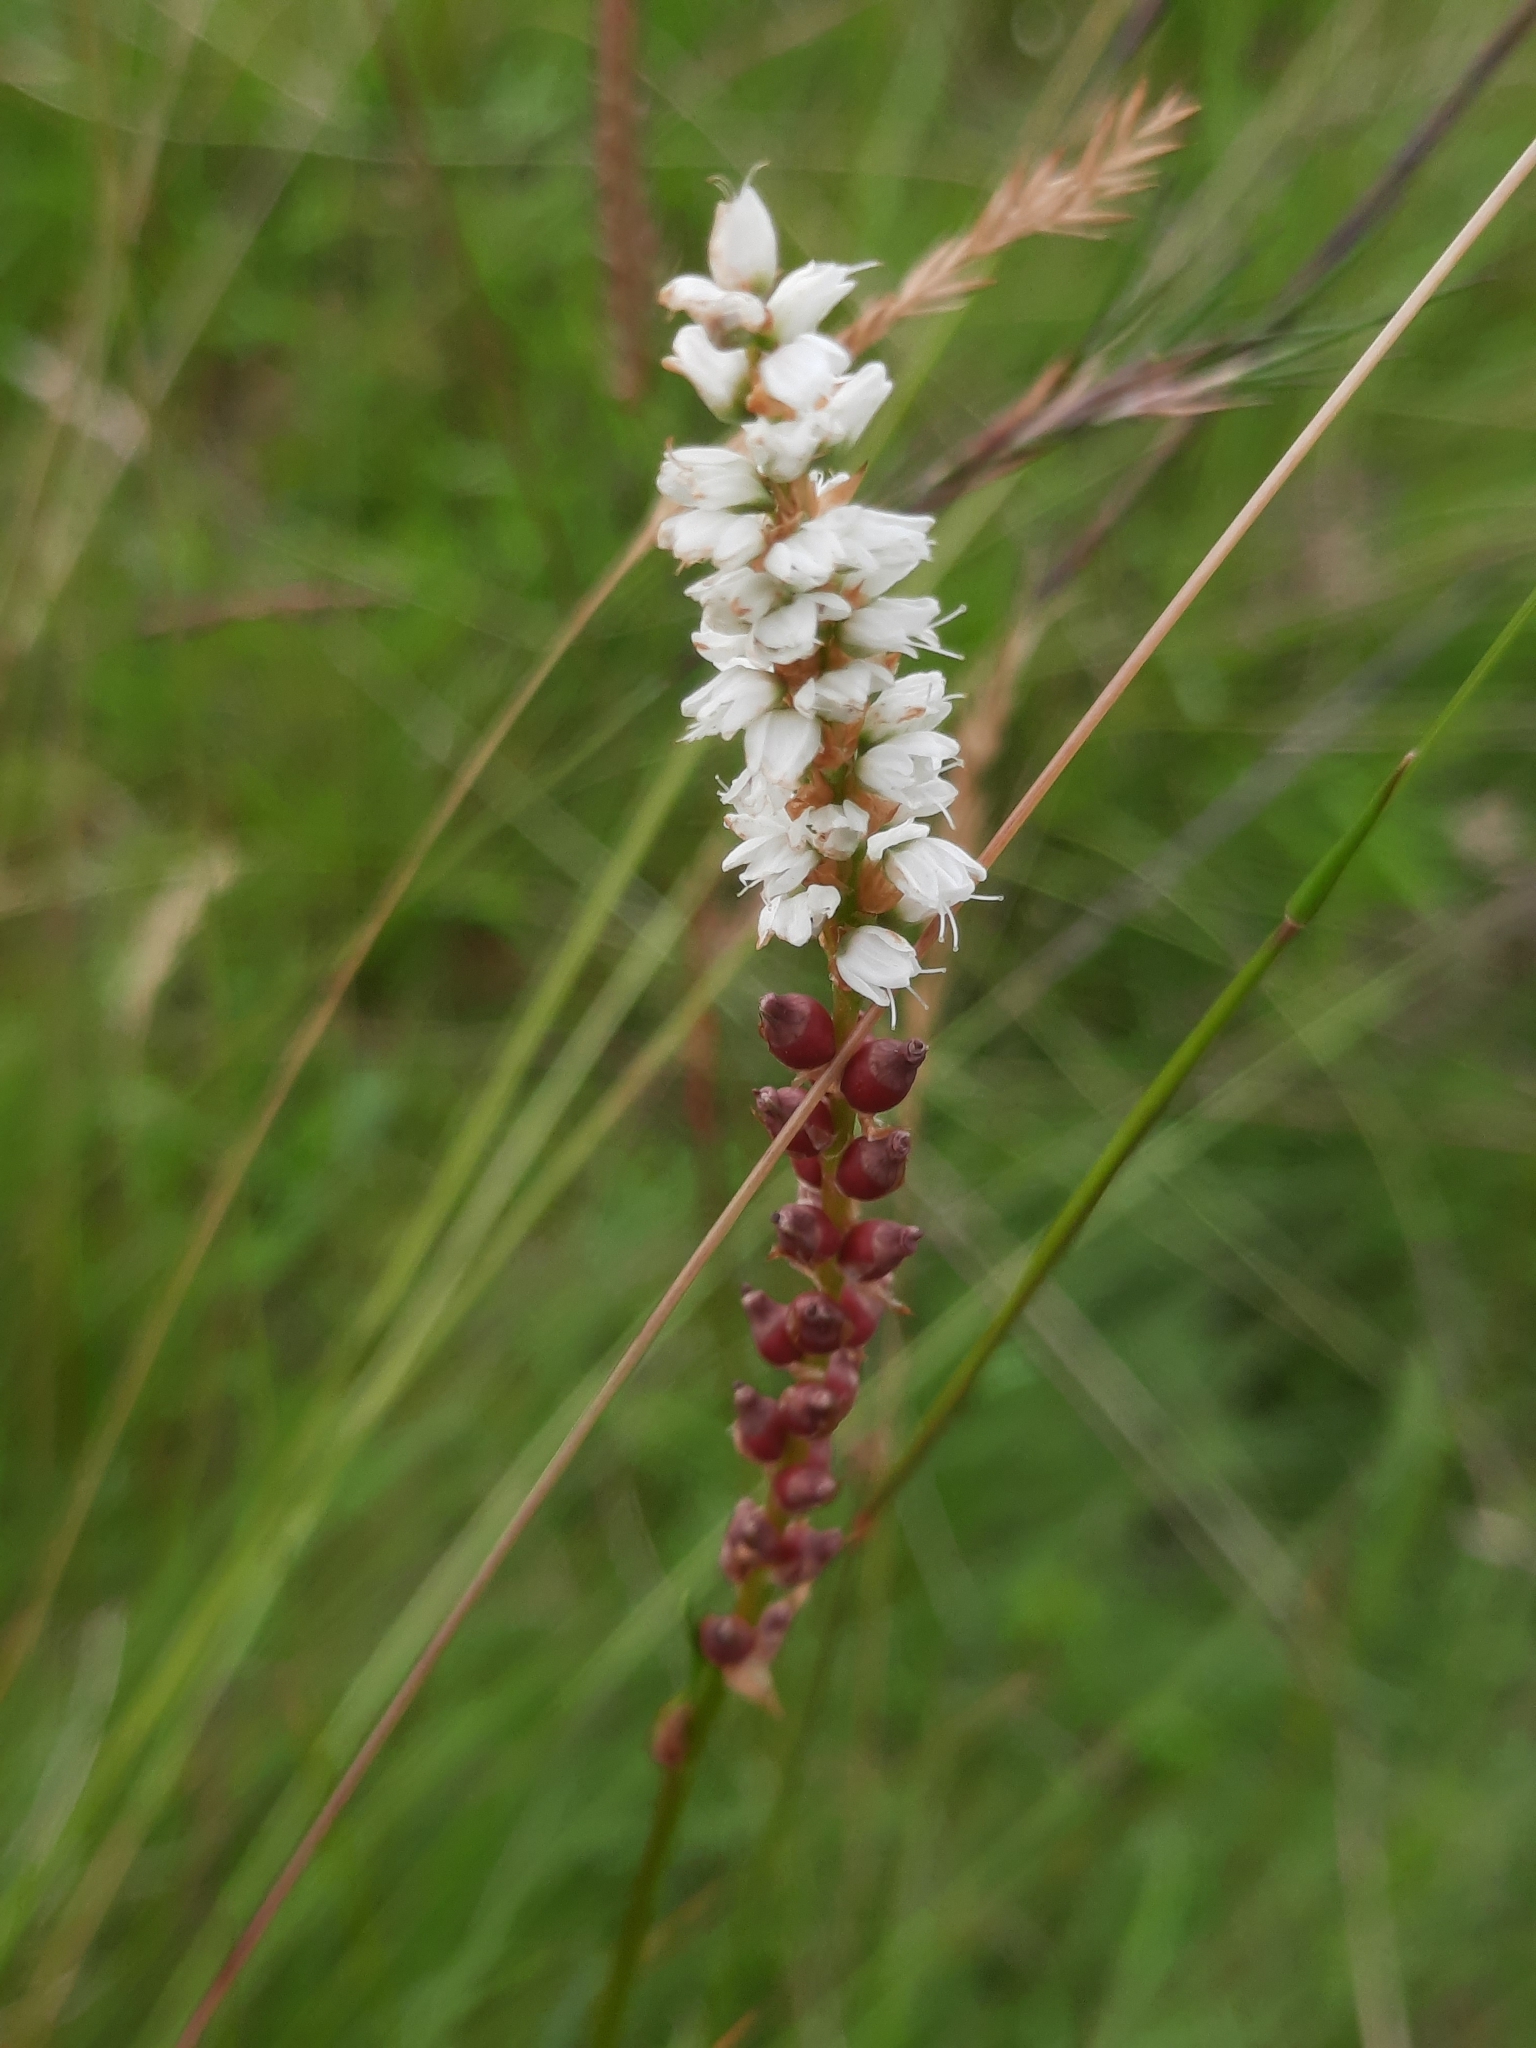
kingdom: Plantae
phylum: Tracheophyta
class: Magnoliopsida
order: Caryophyllales
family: Polygonaceae
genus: Bistorta
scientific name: Bistorta vivipara
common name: Alpine bistort
